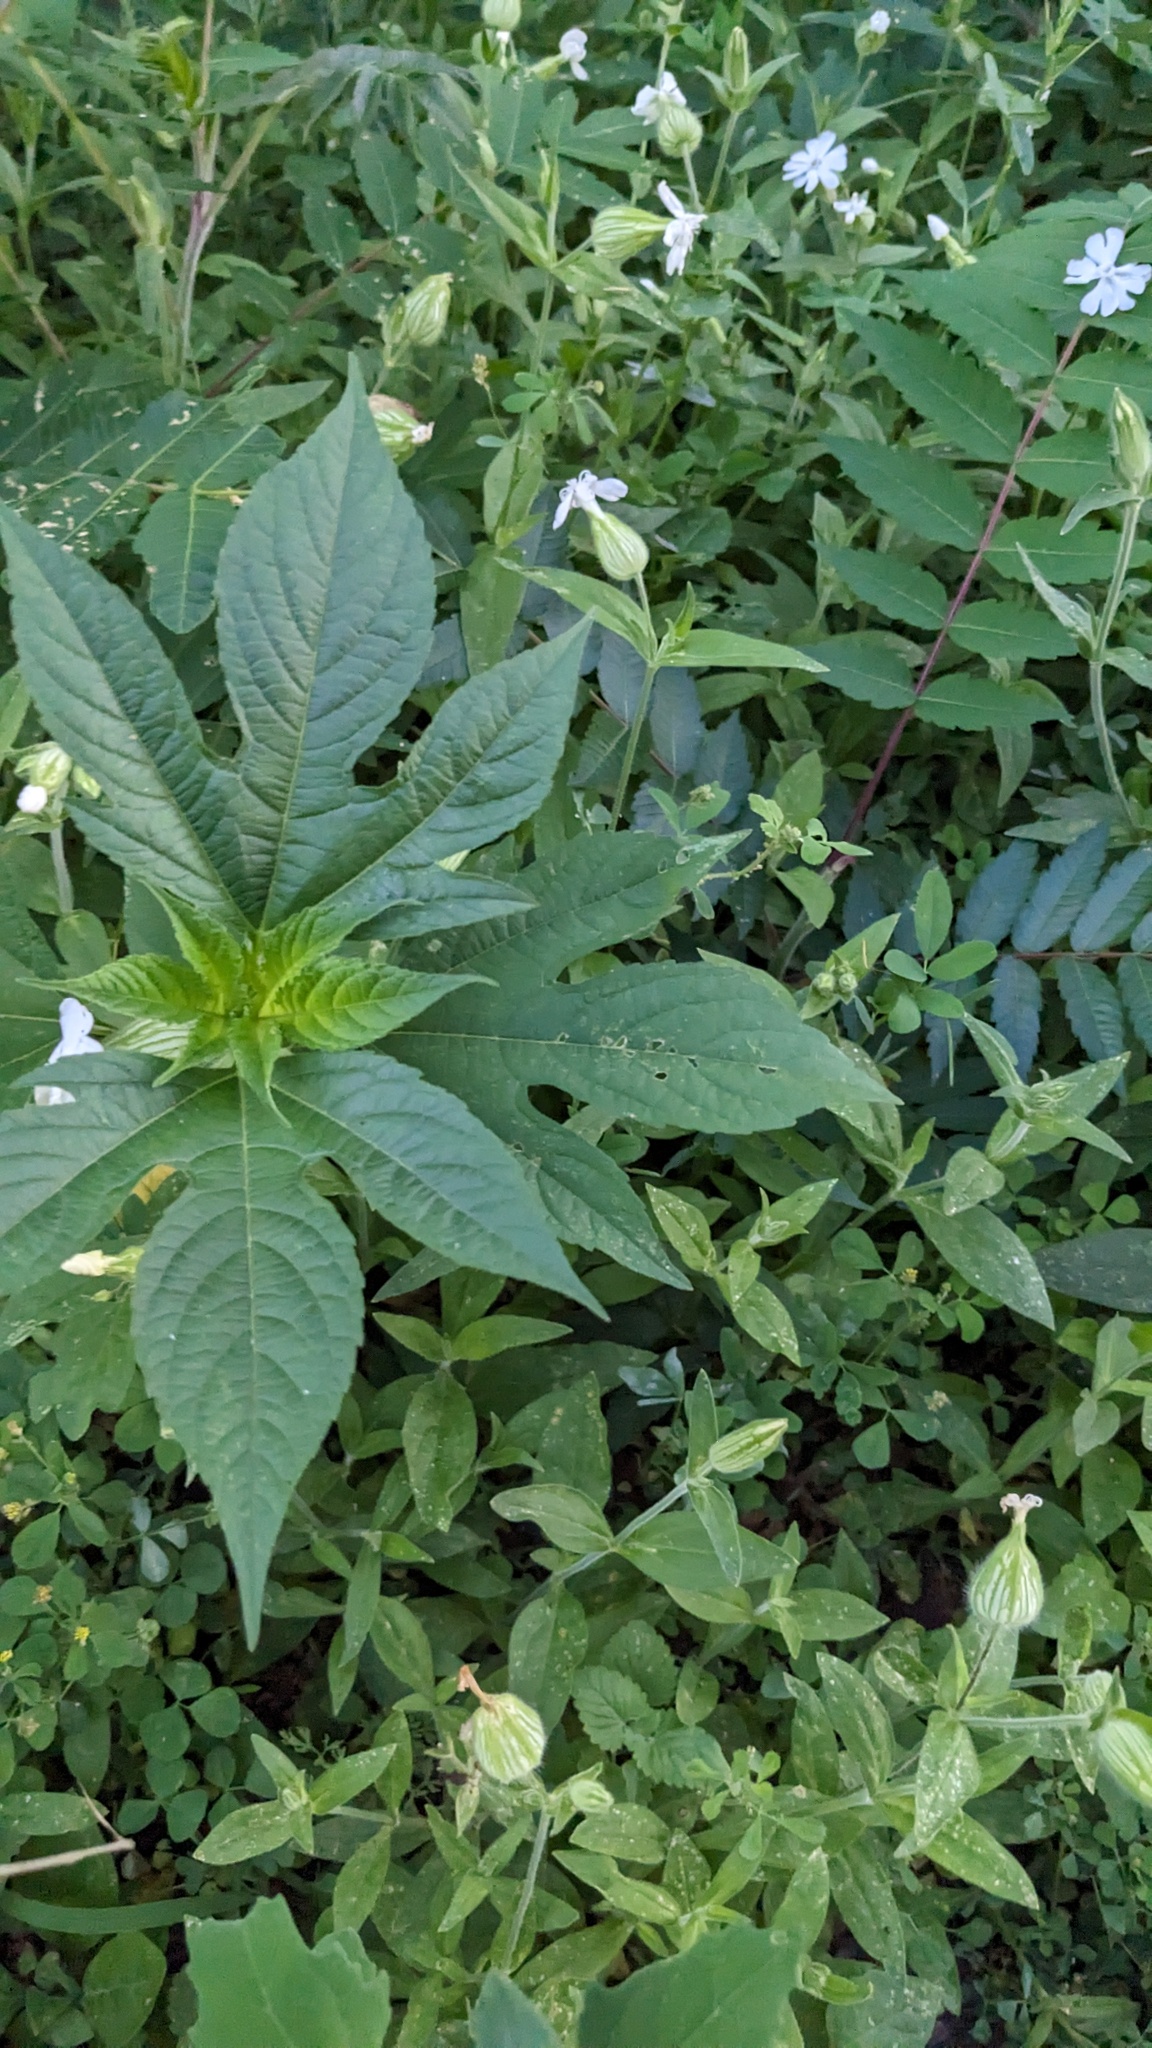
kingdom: Plantae
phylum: Tracheophyta
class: Magnoliopsida
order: Asterales
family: Asteraceae
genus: Ambrosia
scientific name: Ambrosia trifida
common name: Giant ragweed
